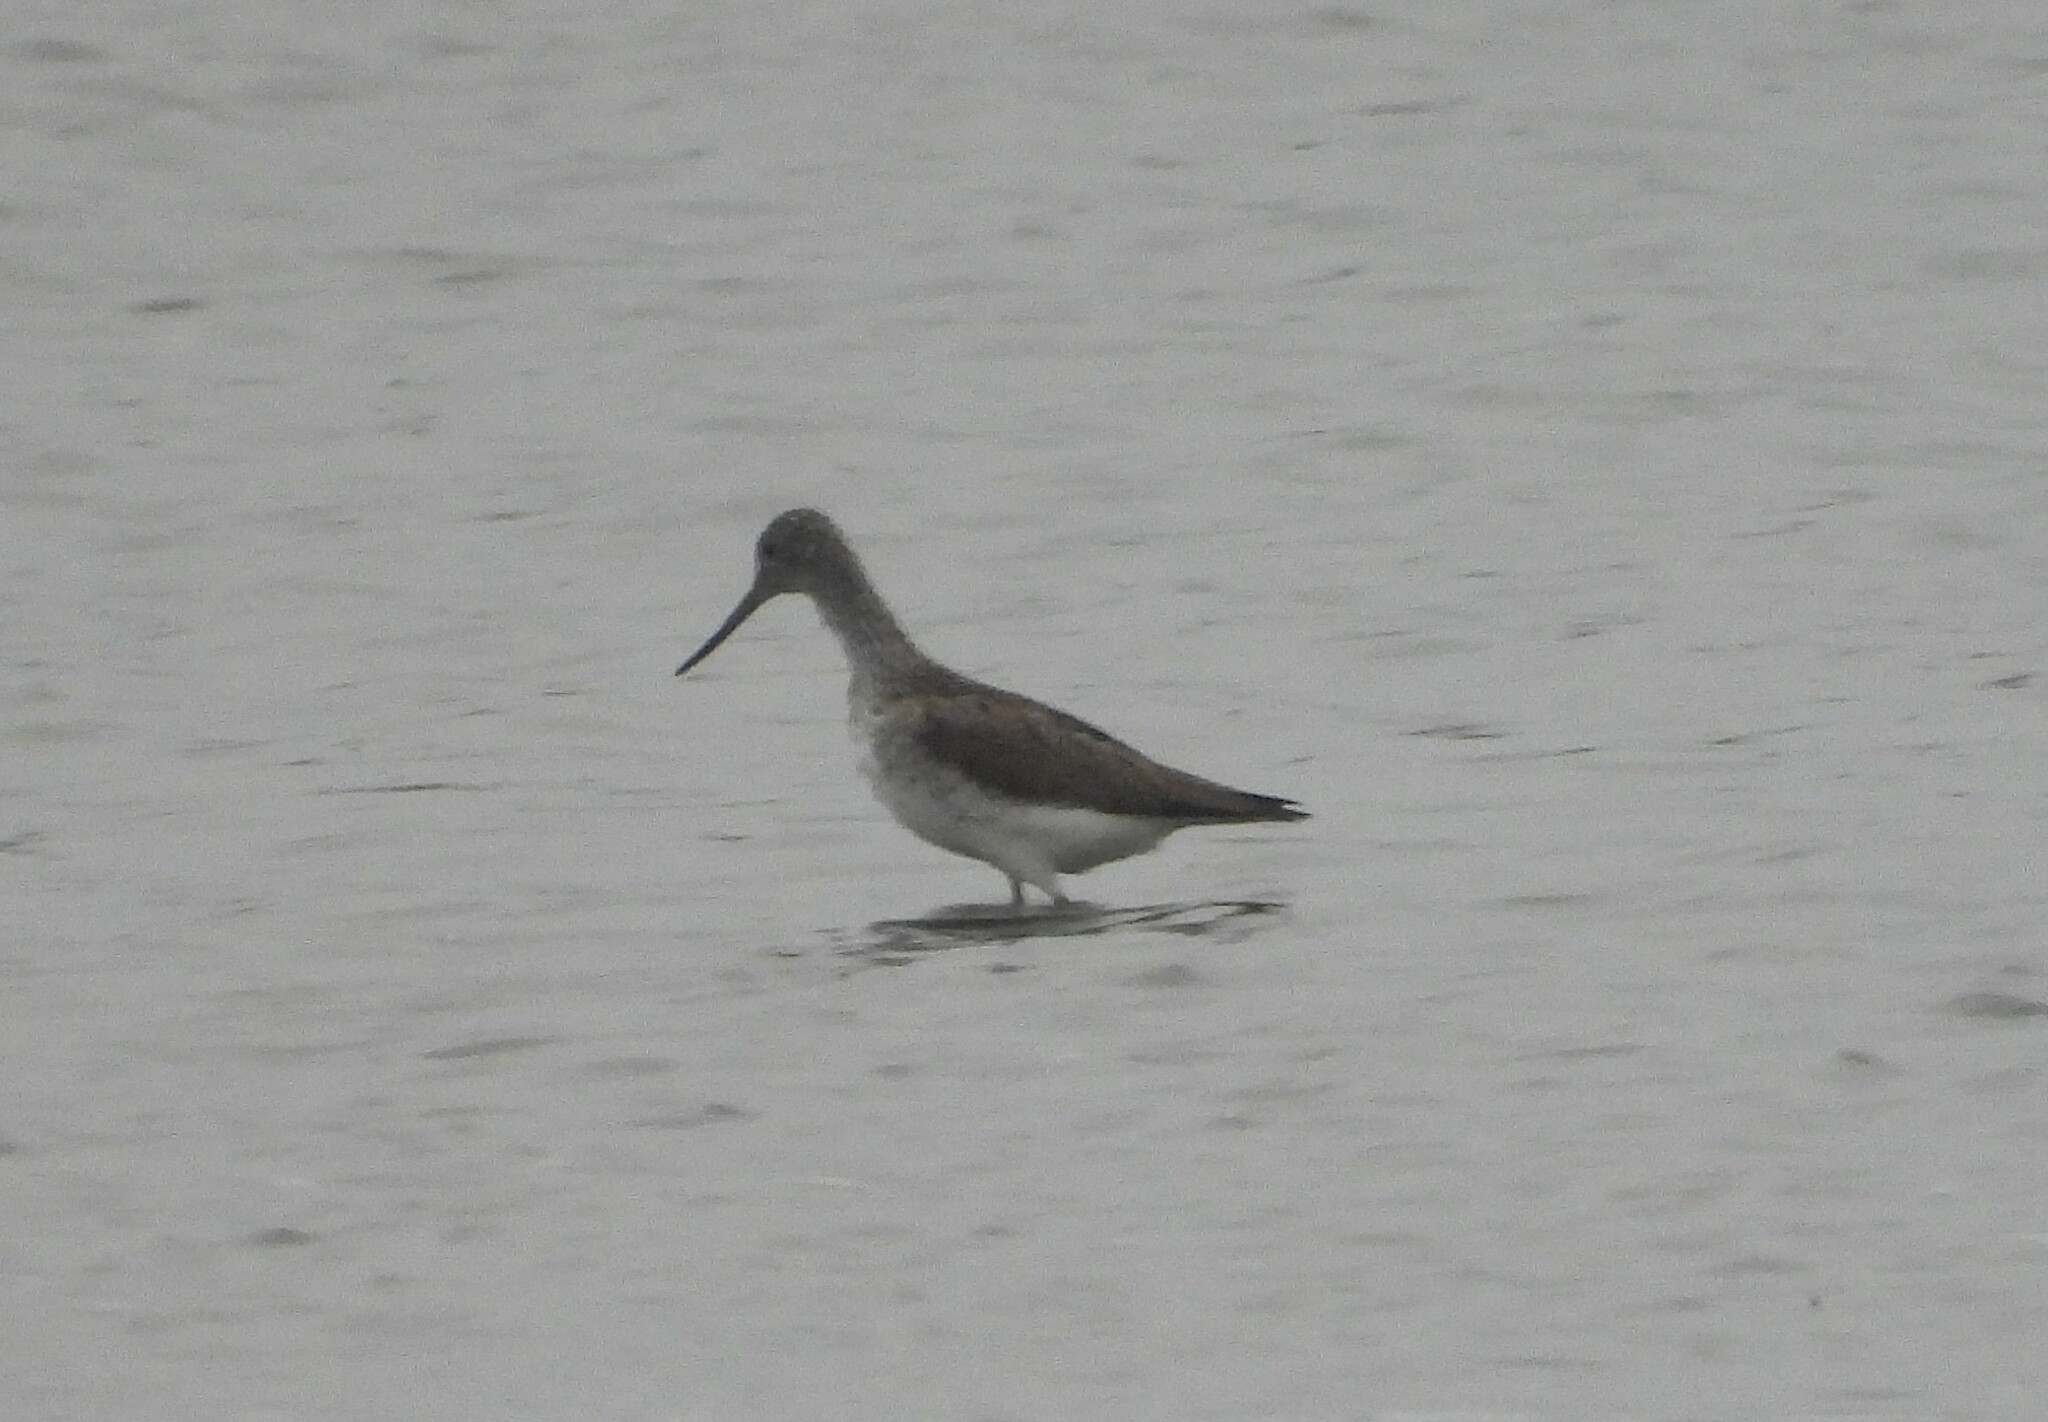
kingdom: Animalia
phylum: Chordata
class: Aves
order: Charadriiformes
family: Scolopacidae
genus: Tringa
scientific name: Tringa nebularia
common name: Common greenshank
